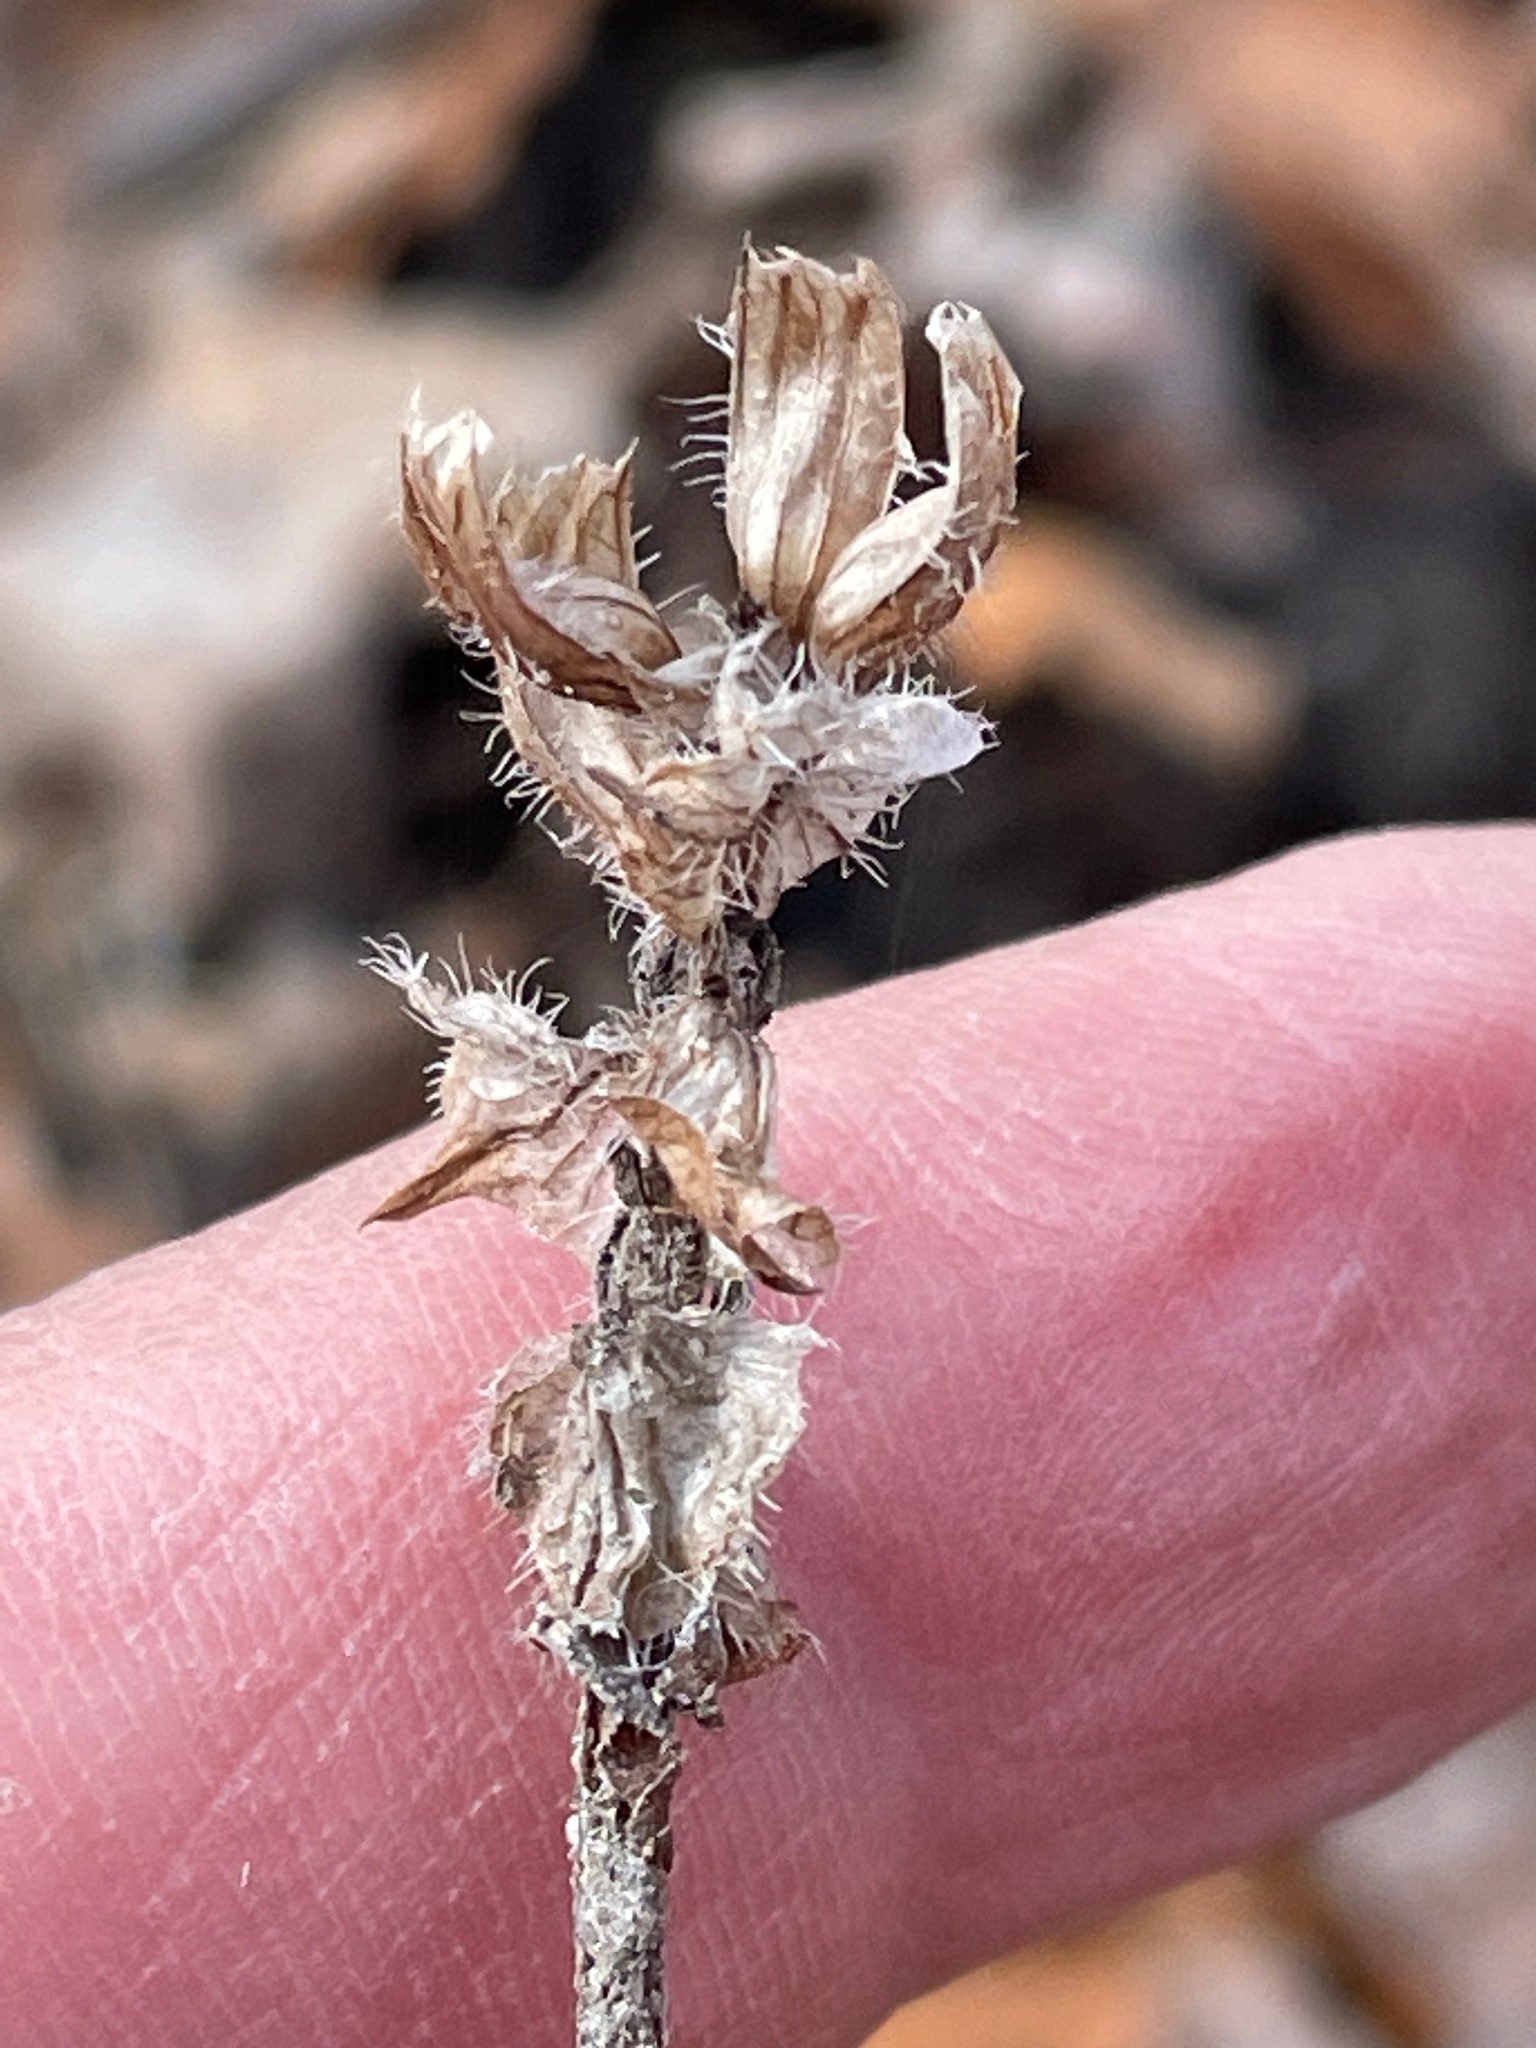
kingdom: Plantae
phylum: Tracheophyta
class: Magnoliopsida
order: Lamiales
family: Lamiaceae
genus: Prunella
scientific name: Prunella vulgaris
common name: Heal-all
